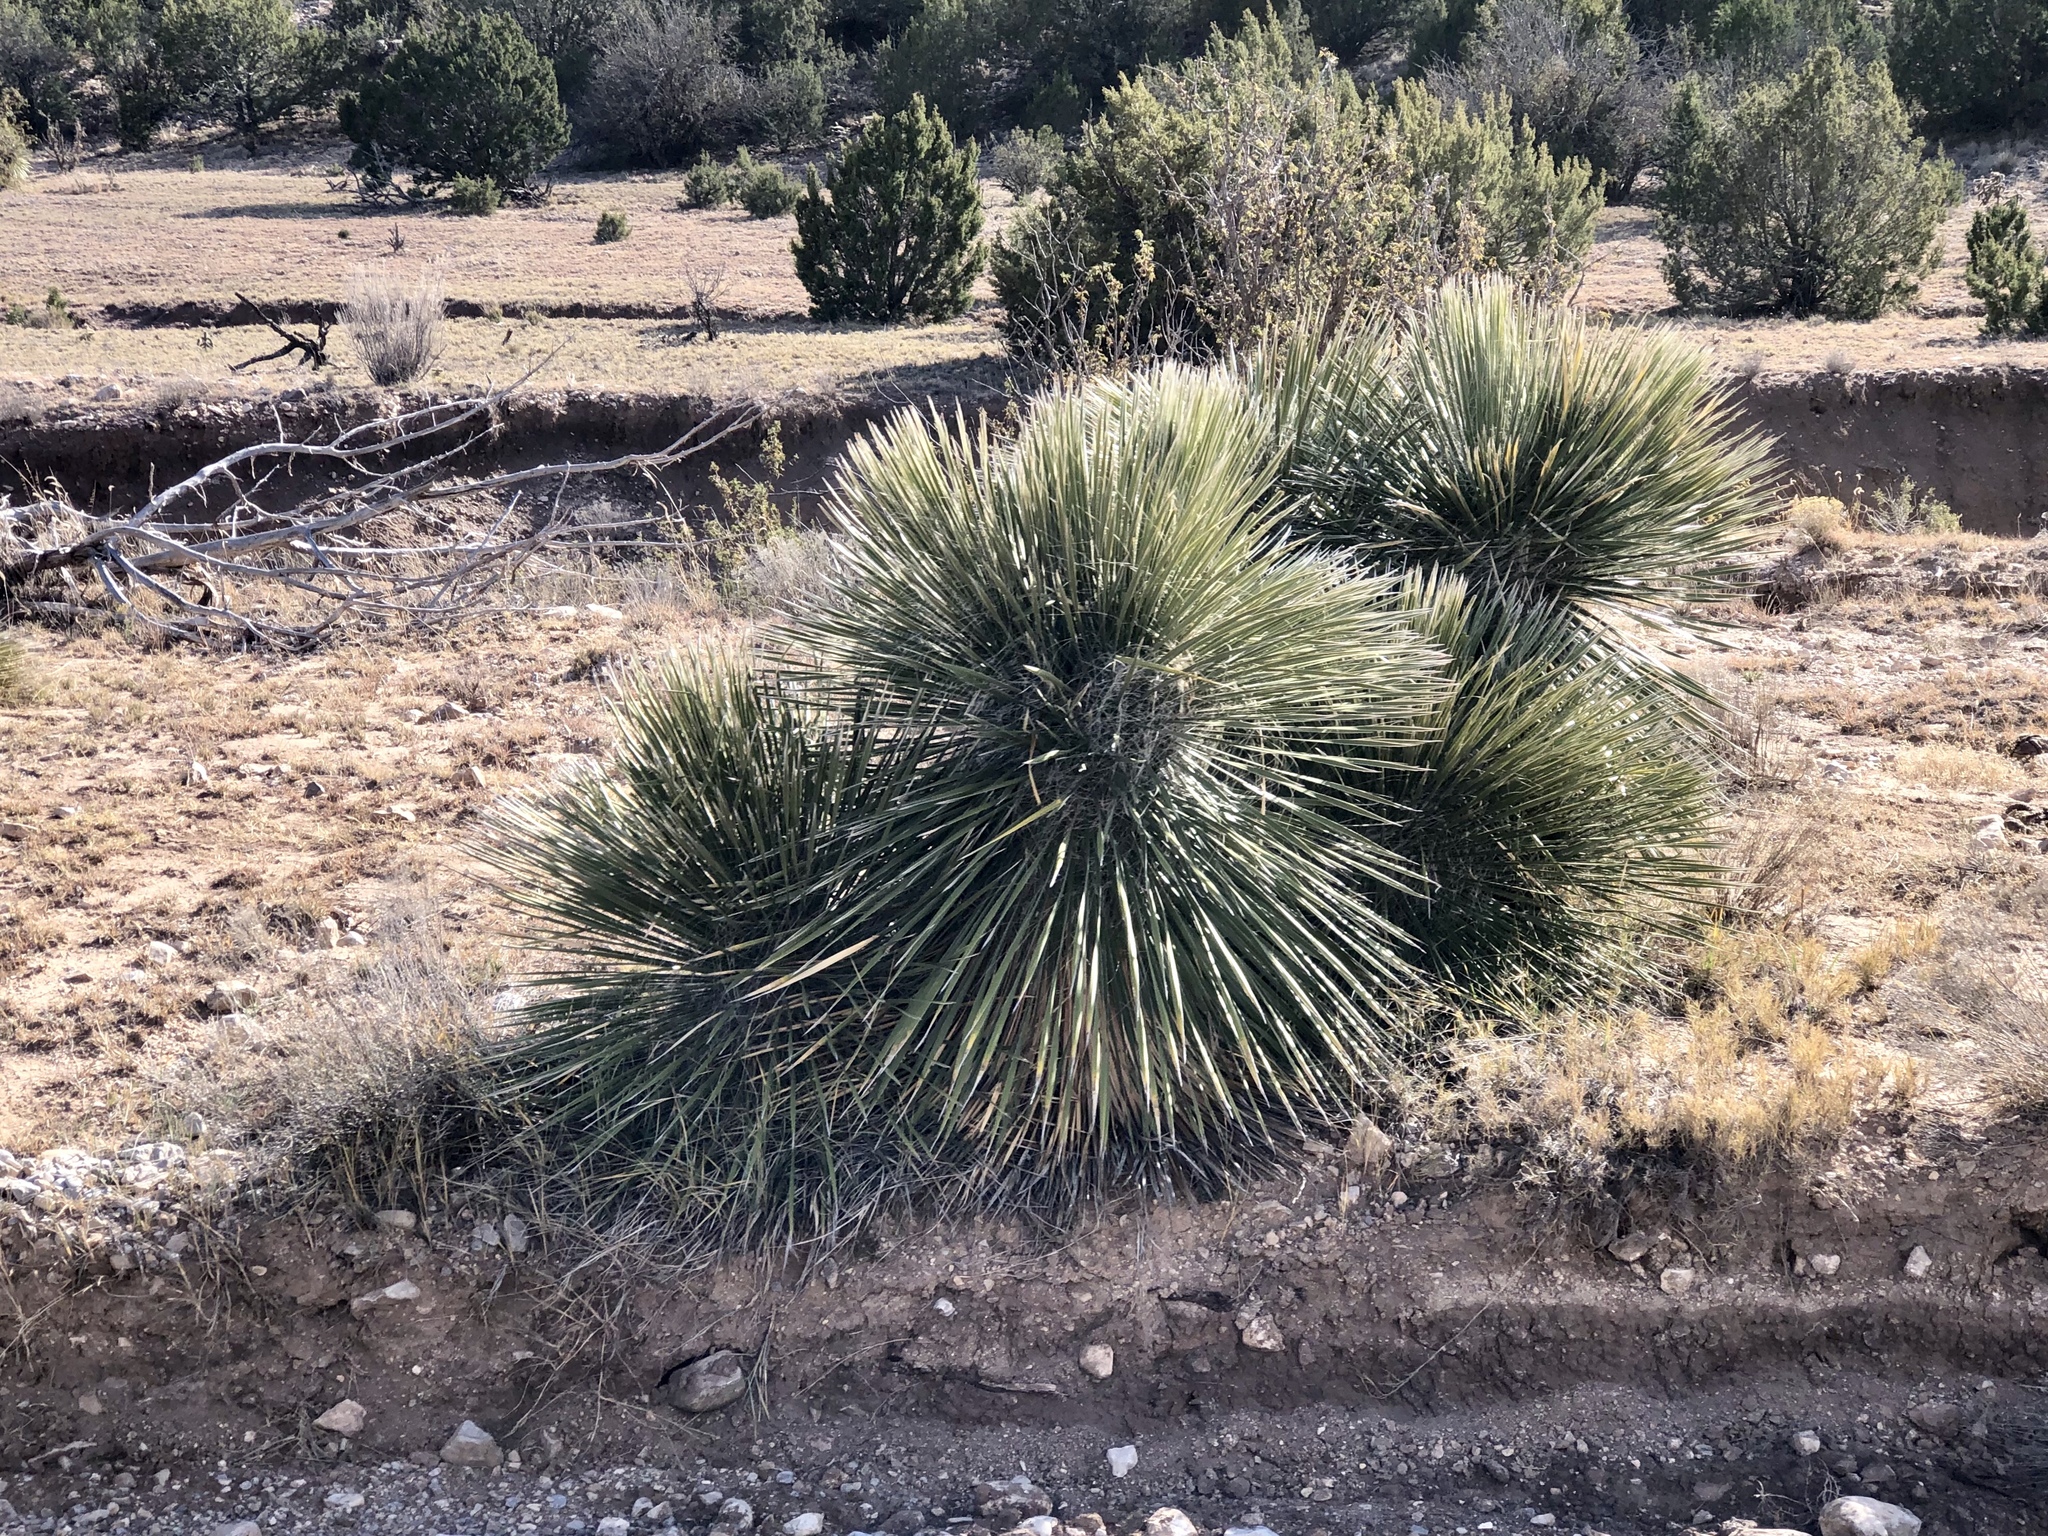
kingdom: Plantae
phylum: Tracheophyta
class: Liliopsida
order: Asparagales
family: Asparagaceae
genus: Yucca
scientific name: Yucca elata
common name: Palmella
